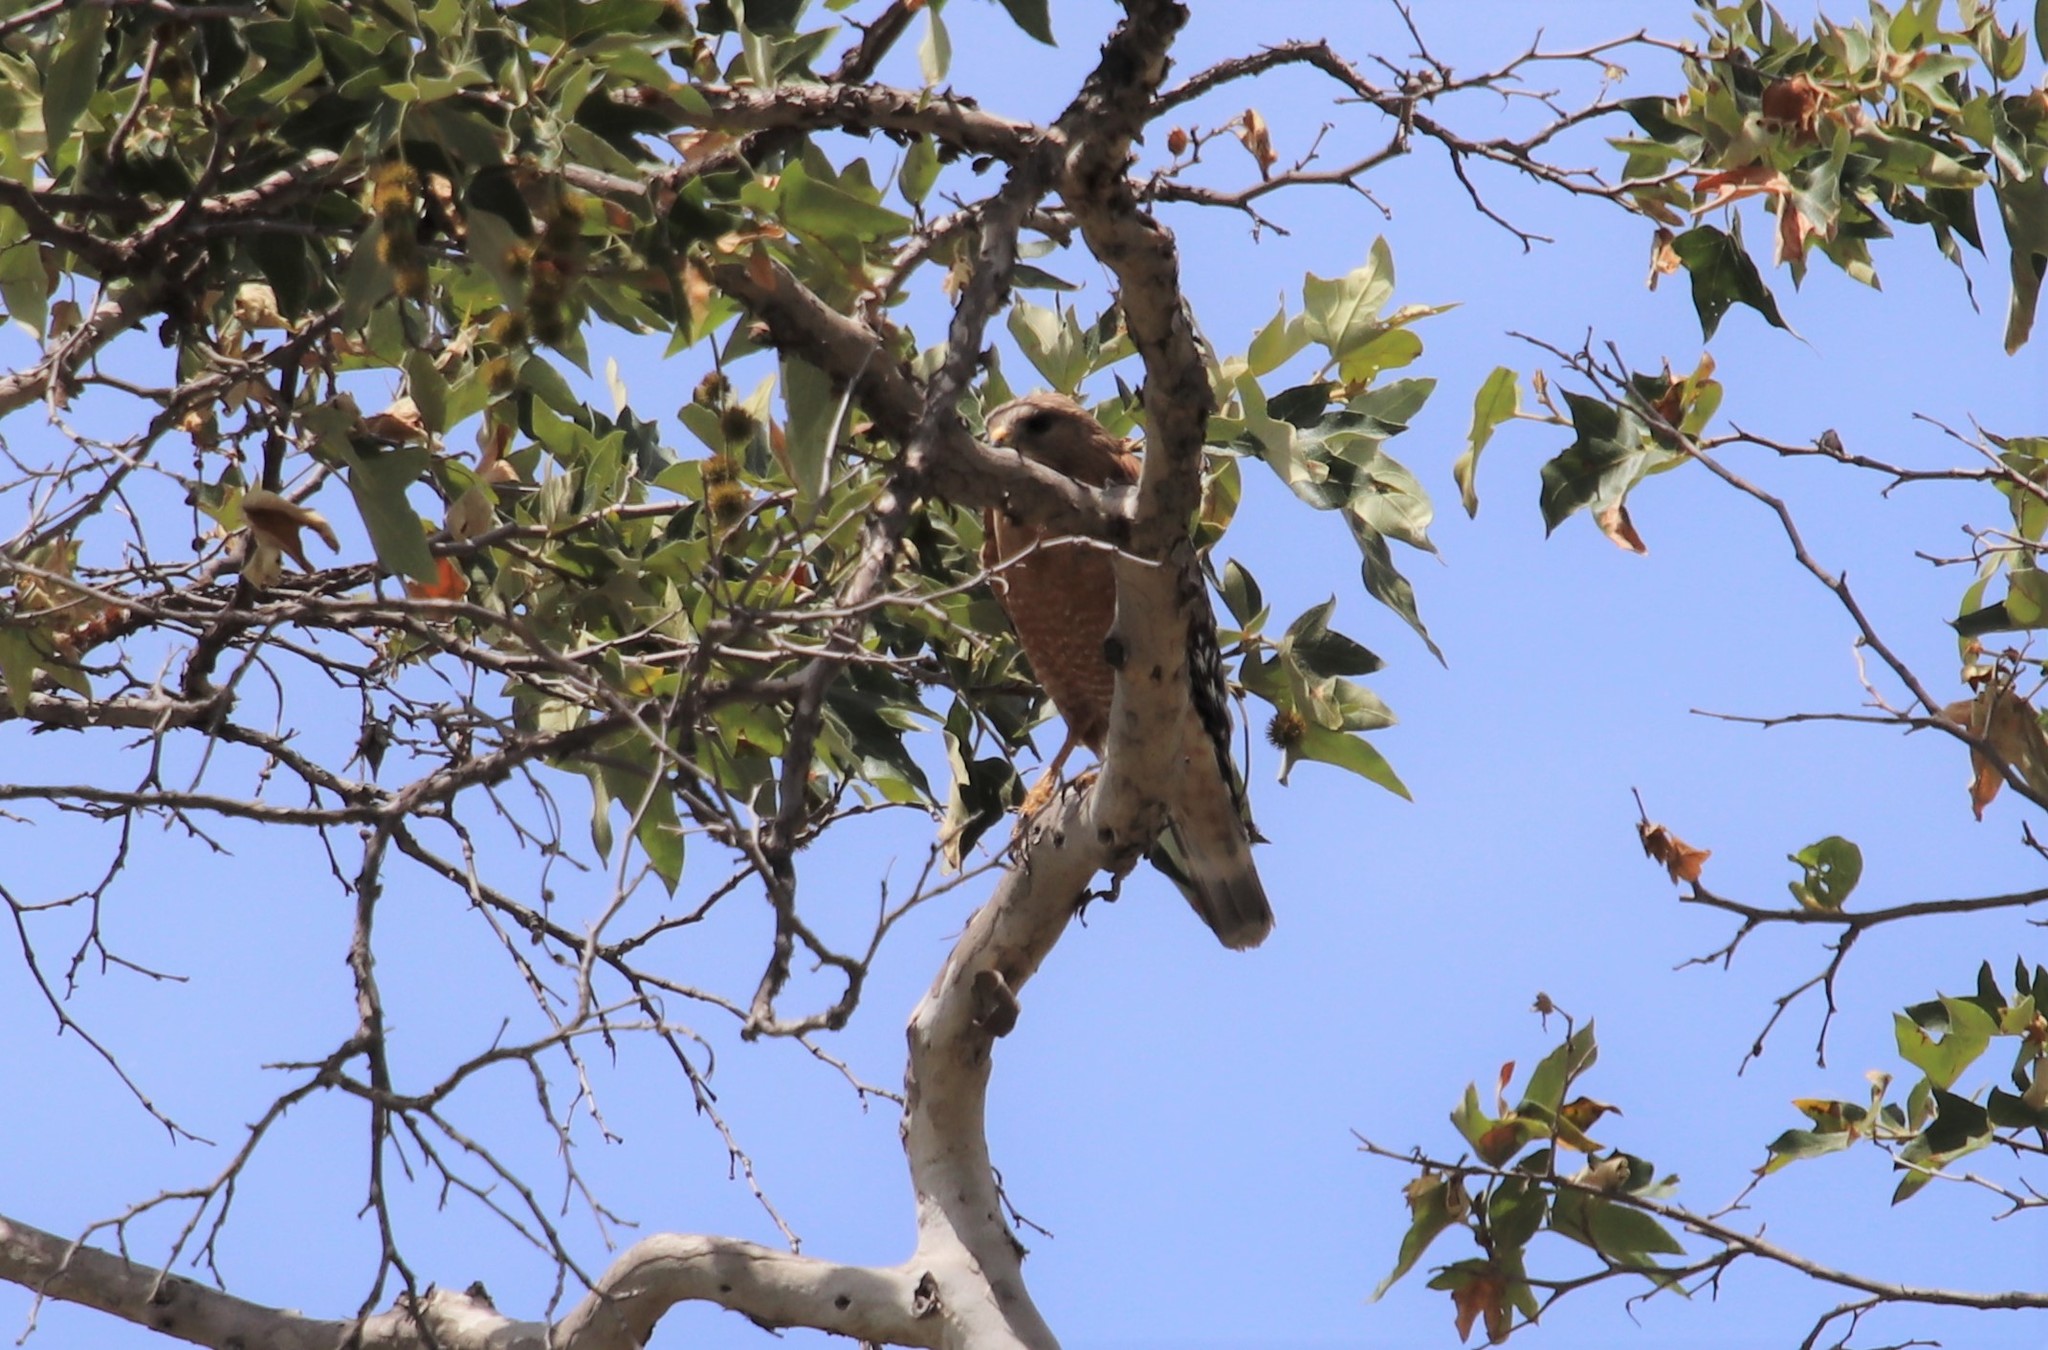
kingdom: Animalia
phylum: Chordata
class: Aves
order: Accipitriformes
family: Accipitridae
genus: Buteo
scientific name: Buteo lineatus
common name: Red-shouldered hawk
